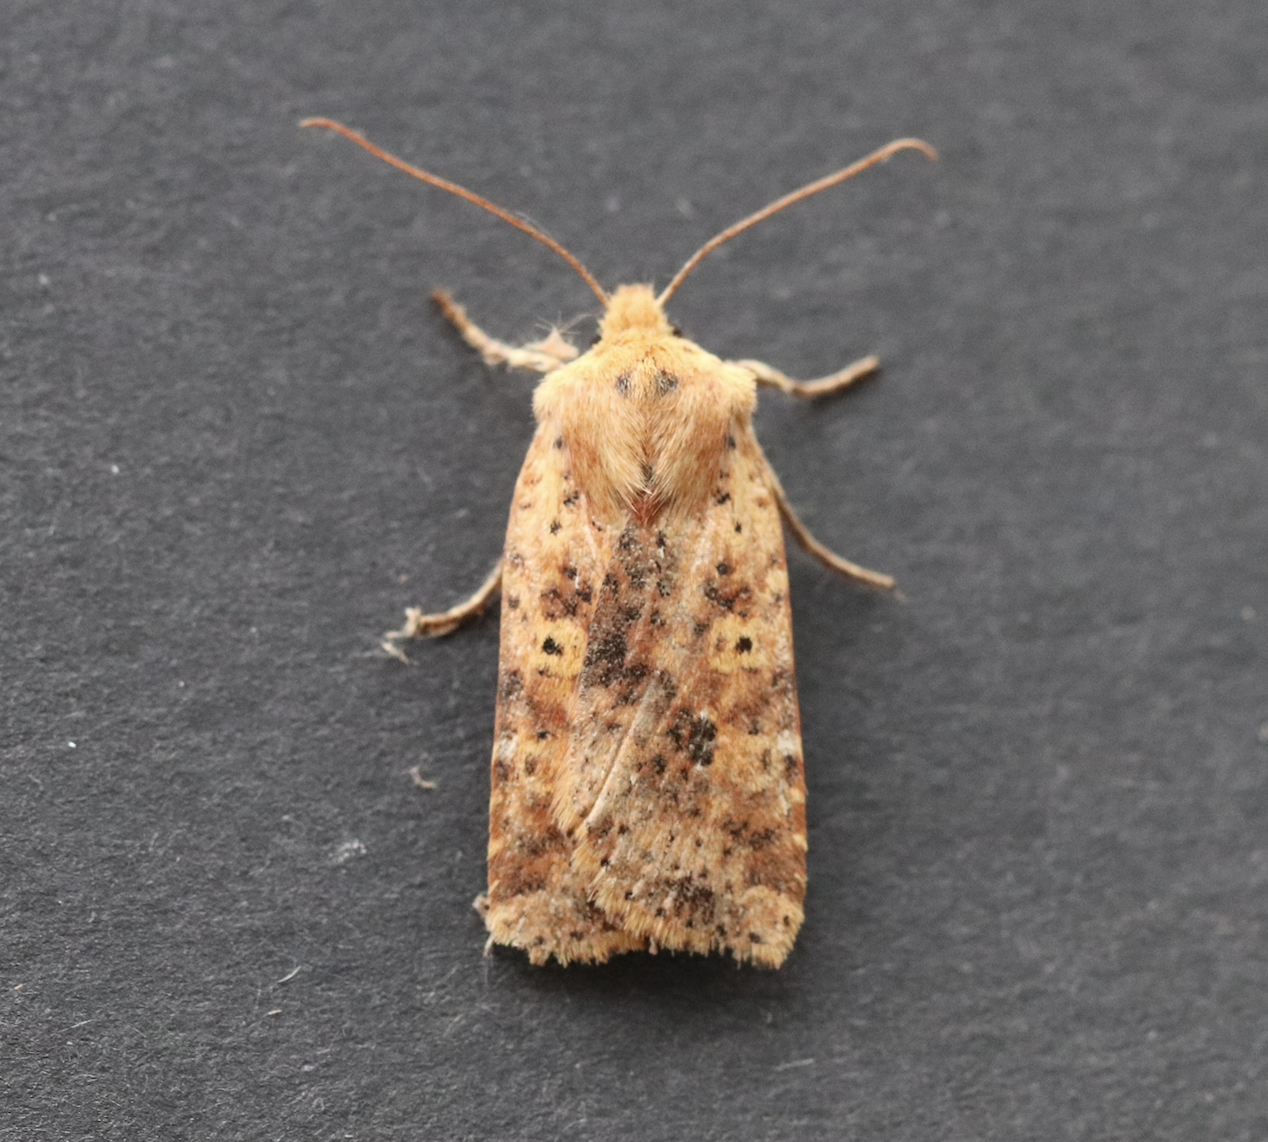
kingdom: Animalia
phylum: Arthropoda
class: Insecta
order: Lepidoptera
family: Noctuidae
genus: Conistra
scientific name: Conistra rubiginea
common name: Dotted chestnut
